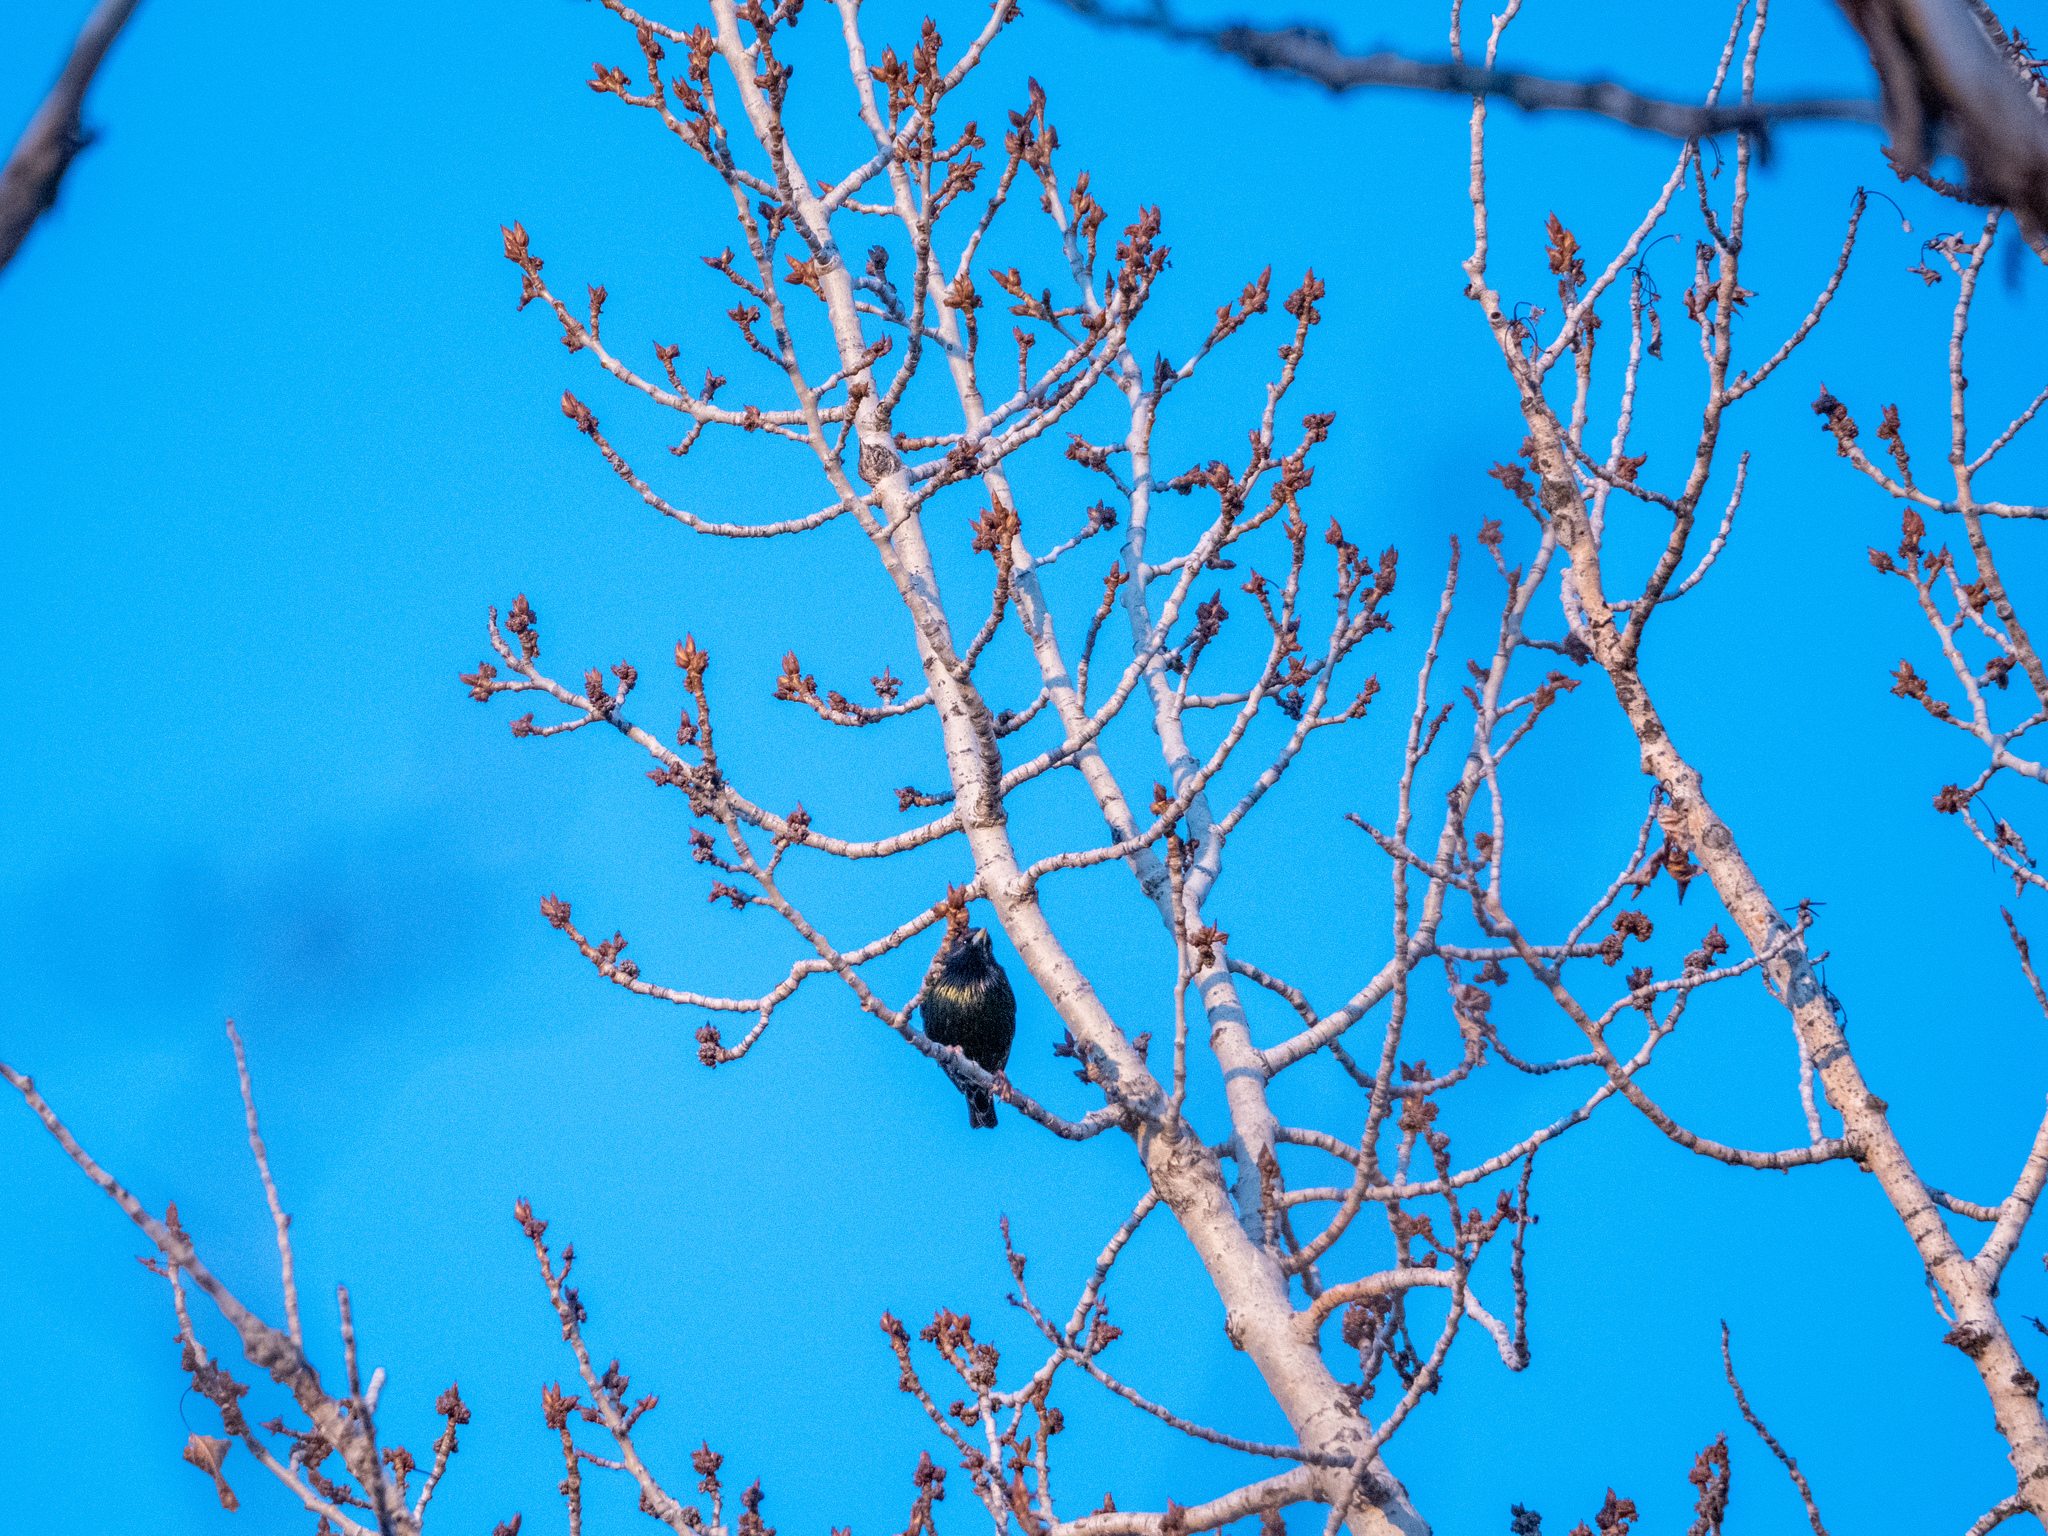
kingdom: Animalia
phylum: Chordata
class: Aves
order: Passeriformes
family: Sturnidae
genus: Sturnus
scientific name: Sturnus vulgaris
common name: Common starling
